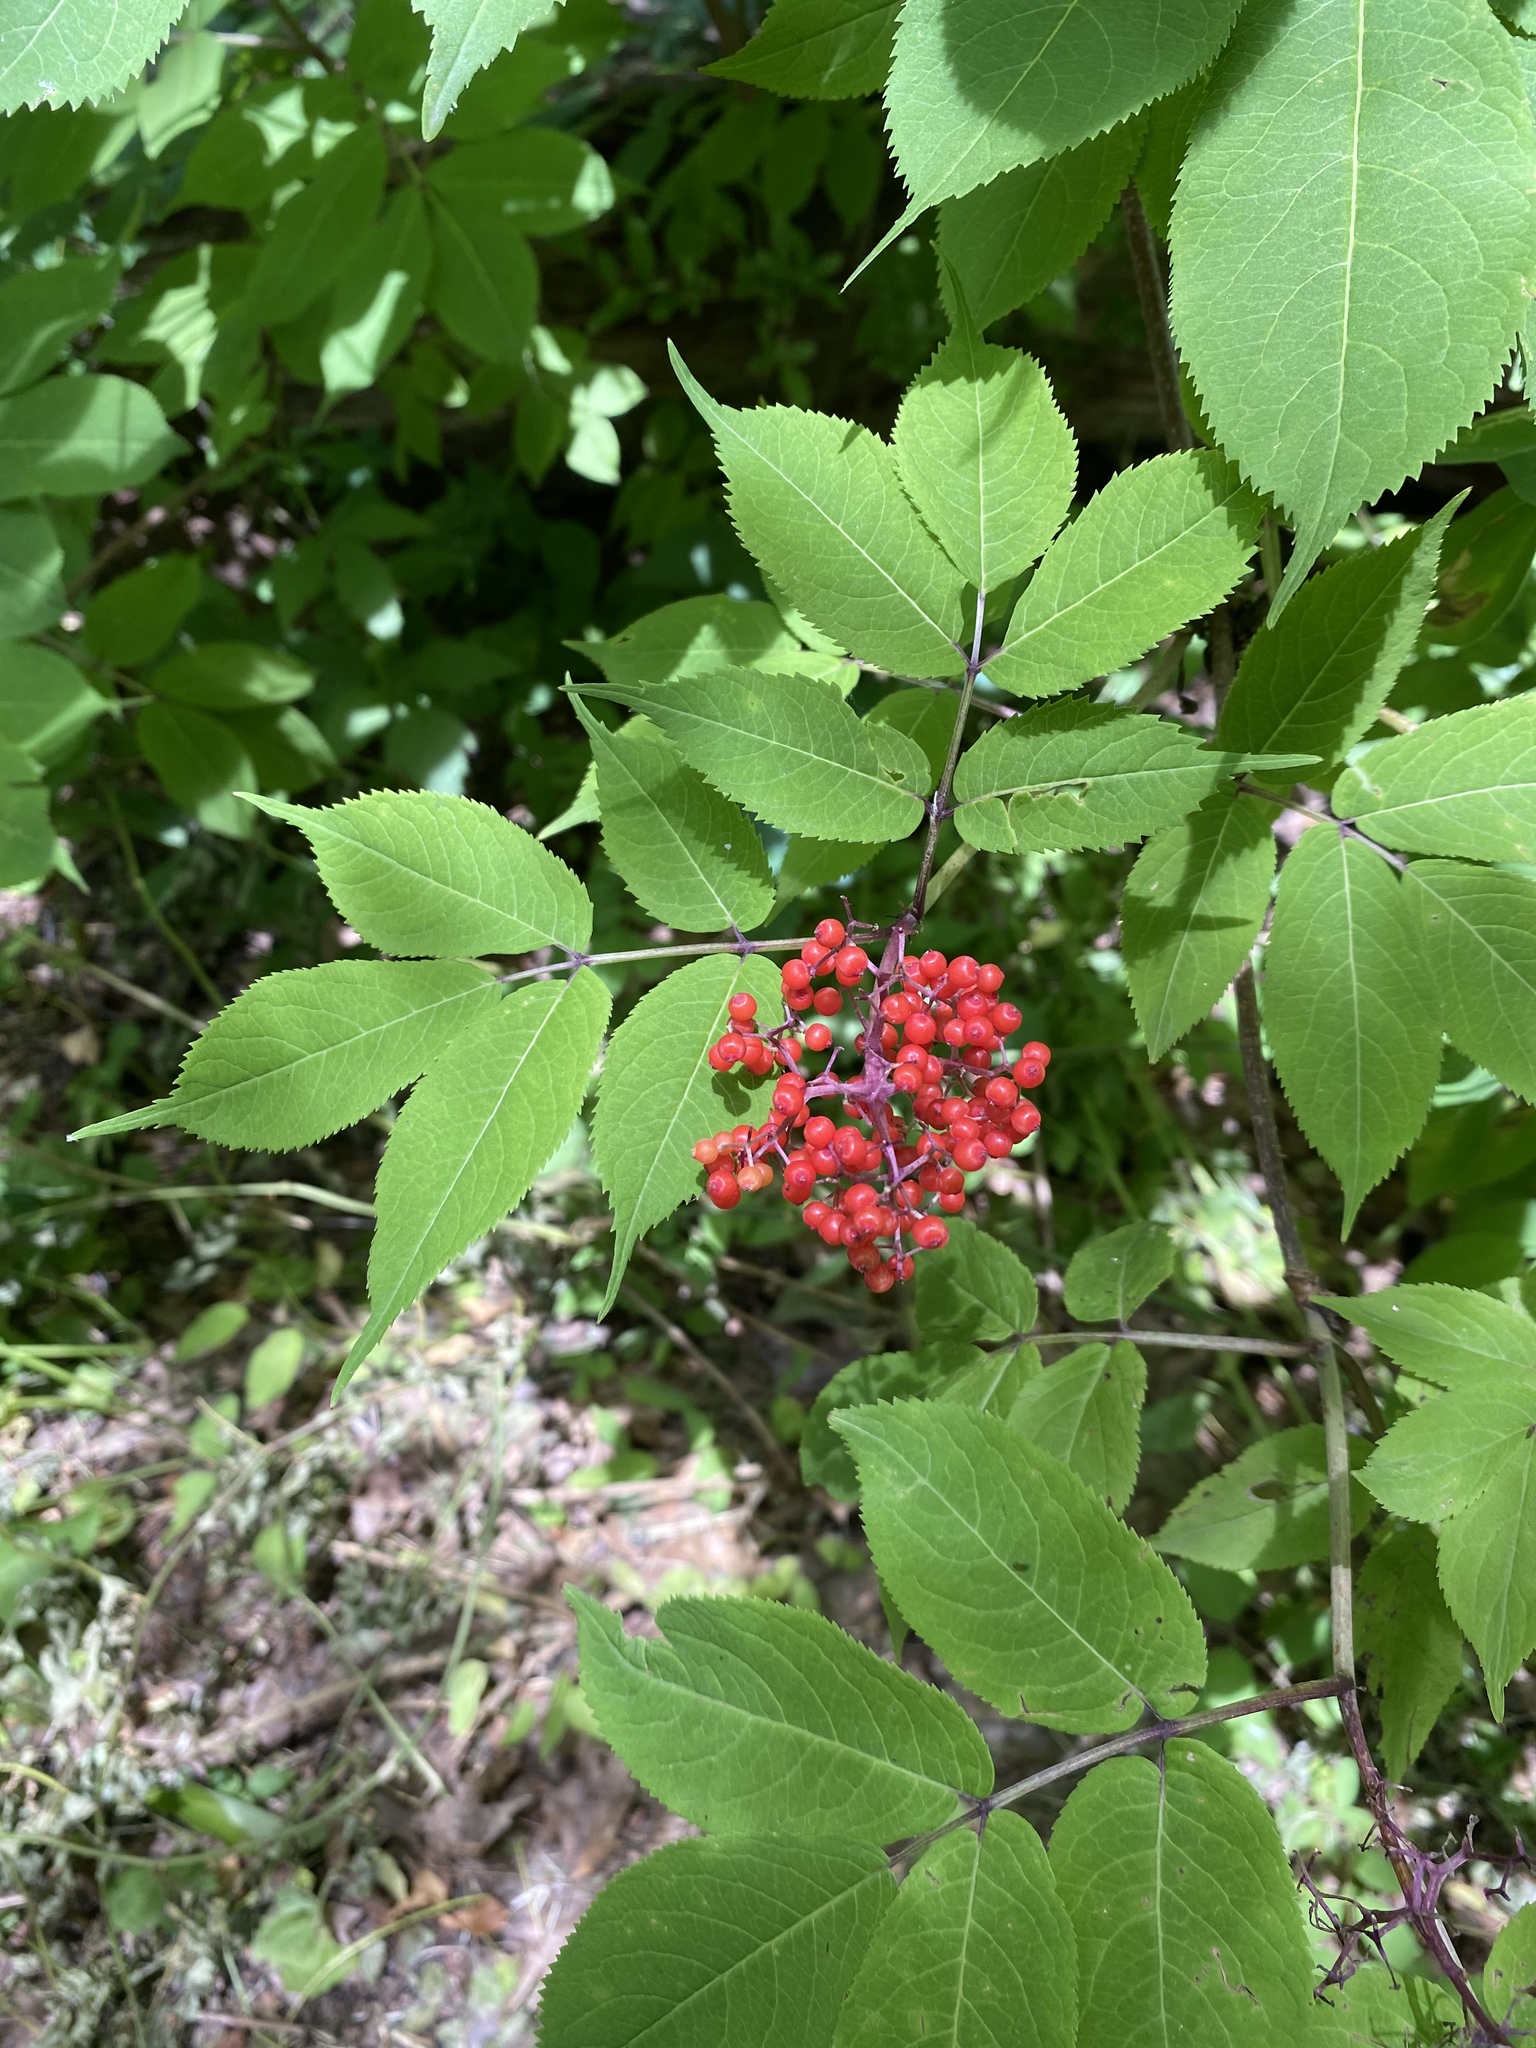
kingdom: Plantae
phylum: Tracheophyta
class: Magnoliopsida
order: Dipsacales
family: Viburnaceae
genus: Sambucus
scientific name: Sambucus racemosa
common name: Red-berried elder
